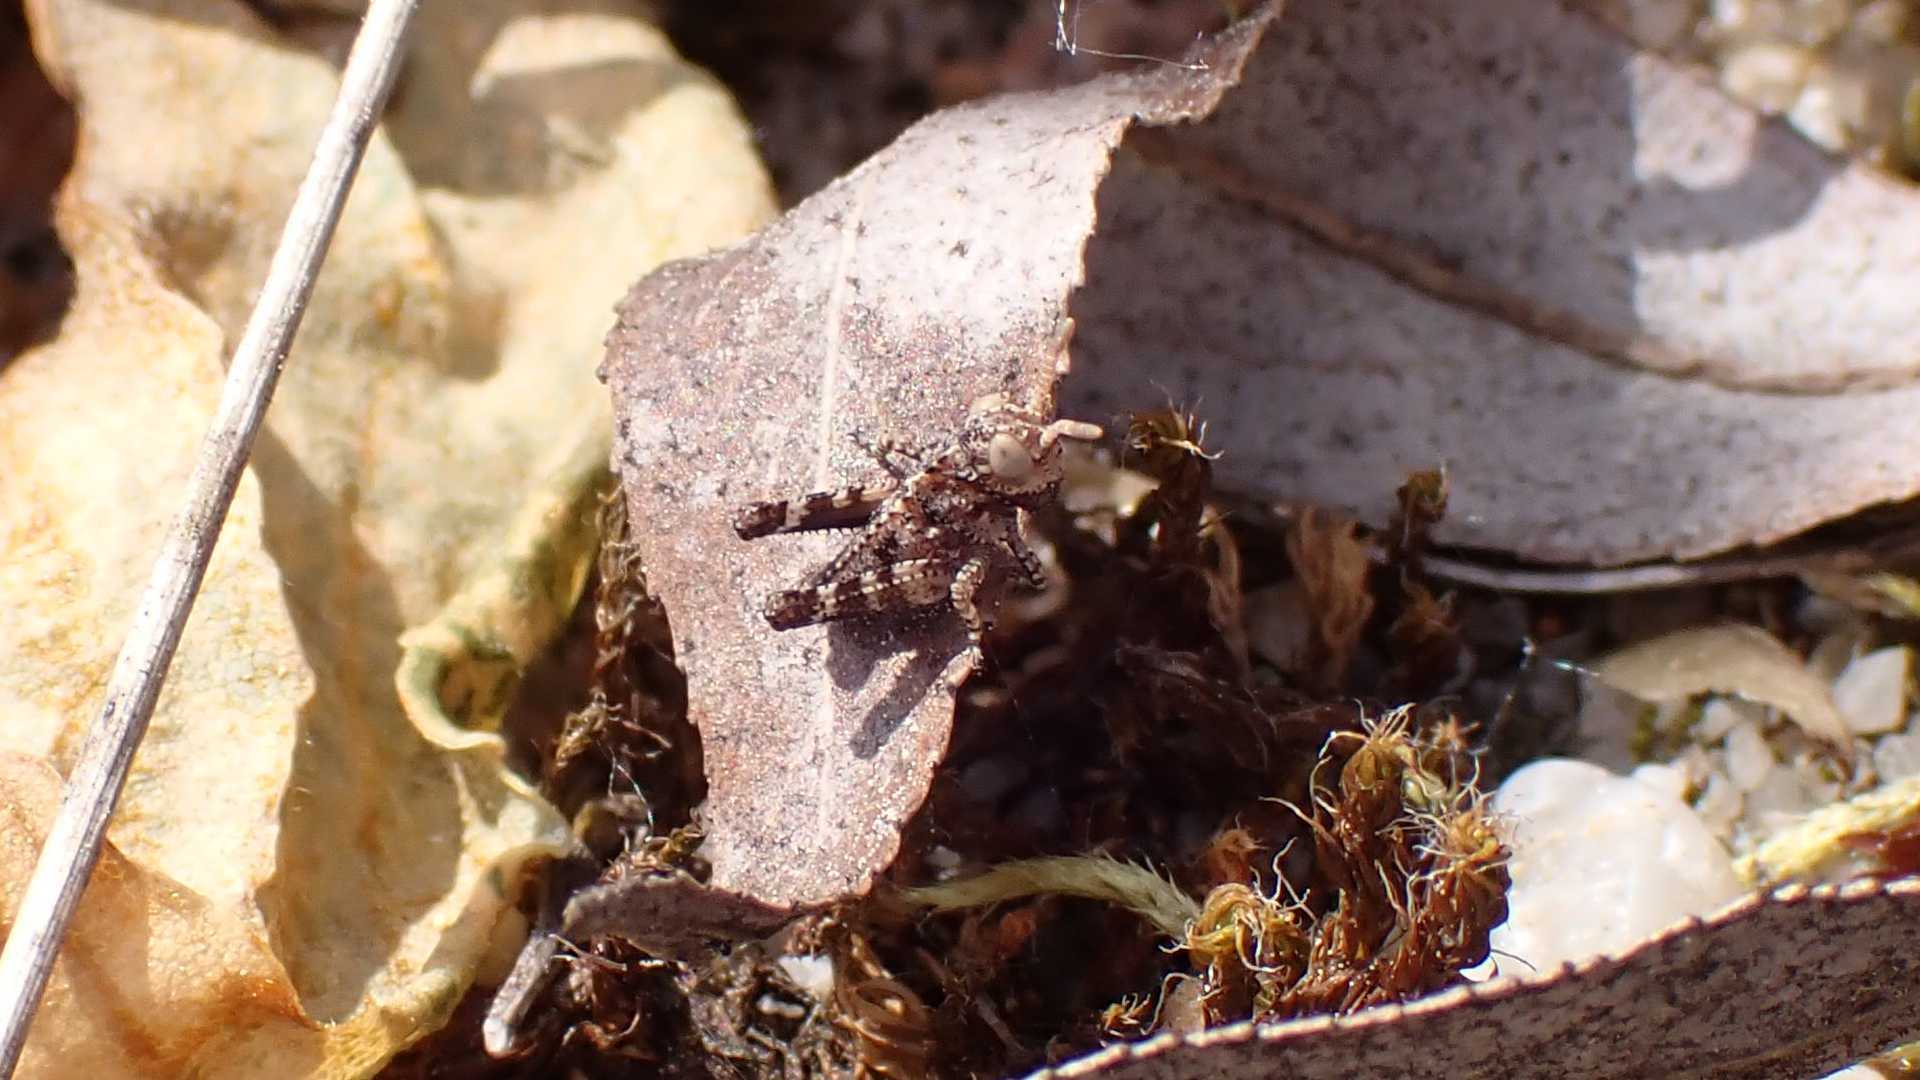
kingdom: Animalia
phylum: Arthropoda
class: Insecta
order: Orthoptera
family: Acrididae
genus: Oedipoda
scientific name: Oedipoda caerulescens
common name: Blue-winged grasshopper
